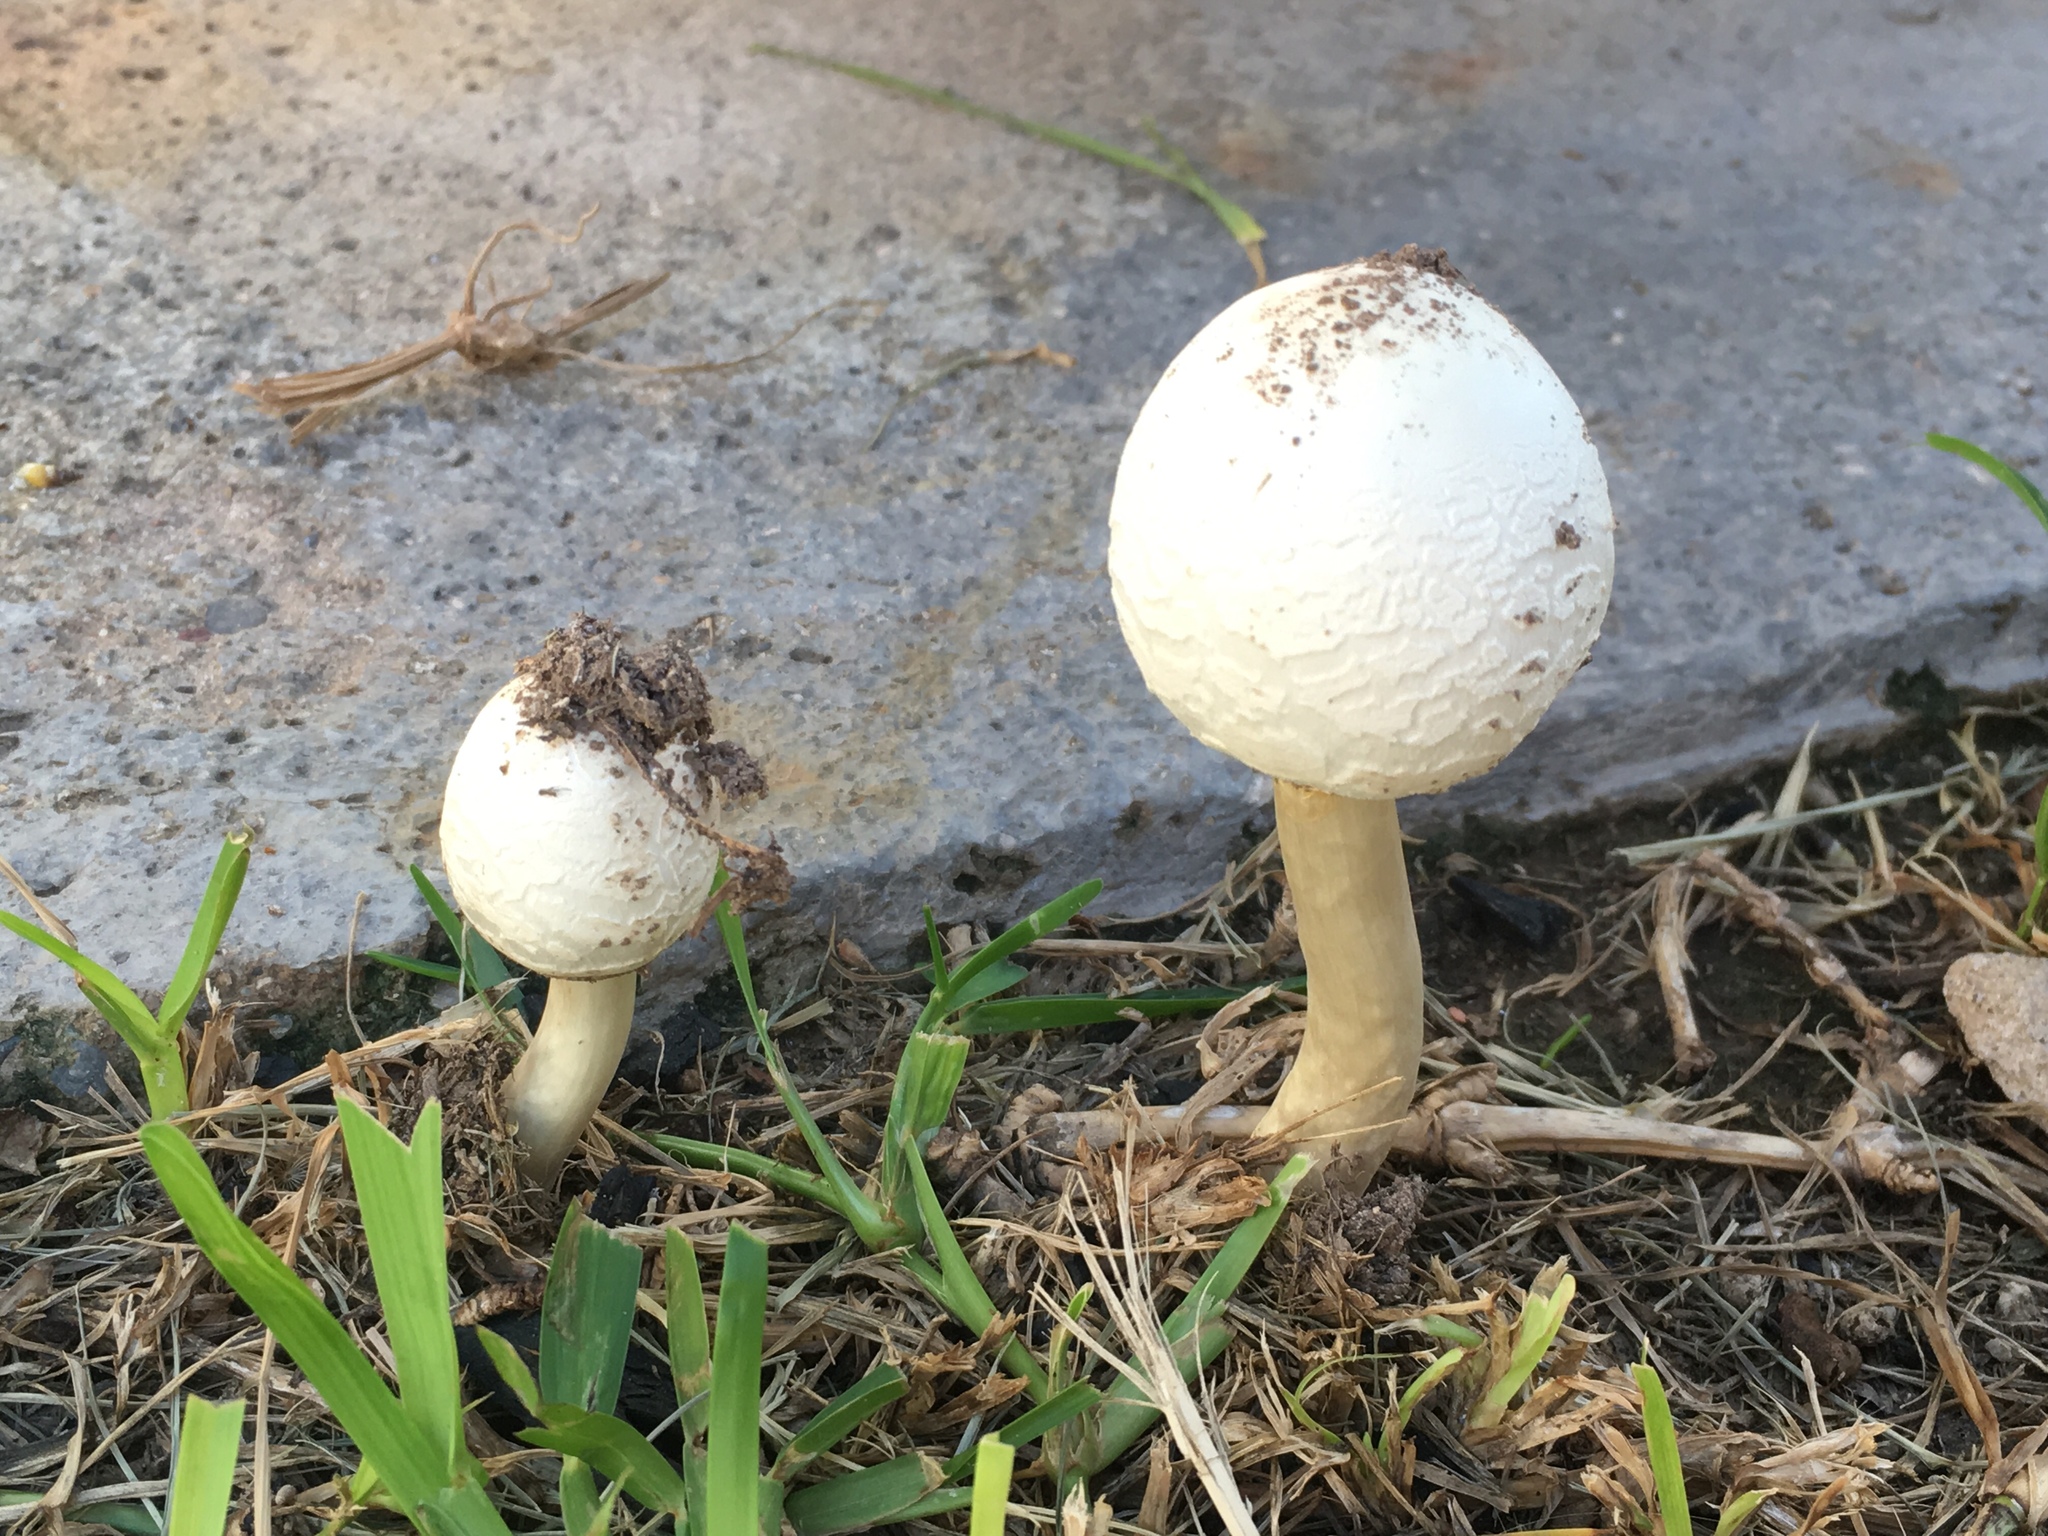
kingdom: Fungi
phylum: Basidiomycota
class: Agaricomycetes
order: Agaricales
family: Agaricaceae
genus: Chlorophyllum
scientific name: Chlorophyllum molybdites
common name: False parasol
